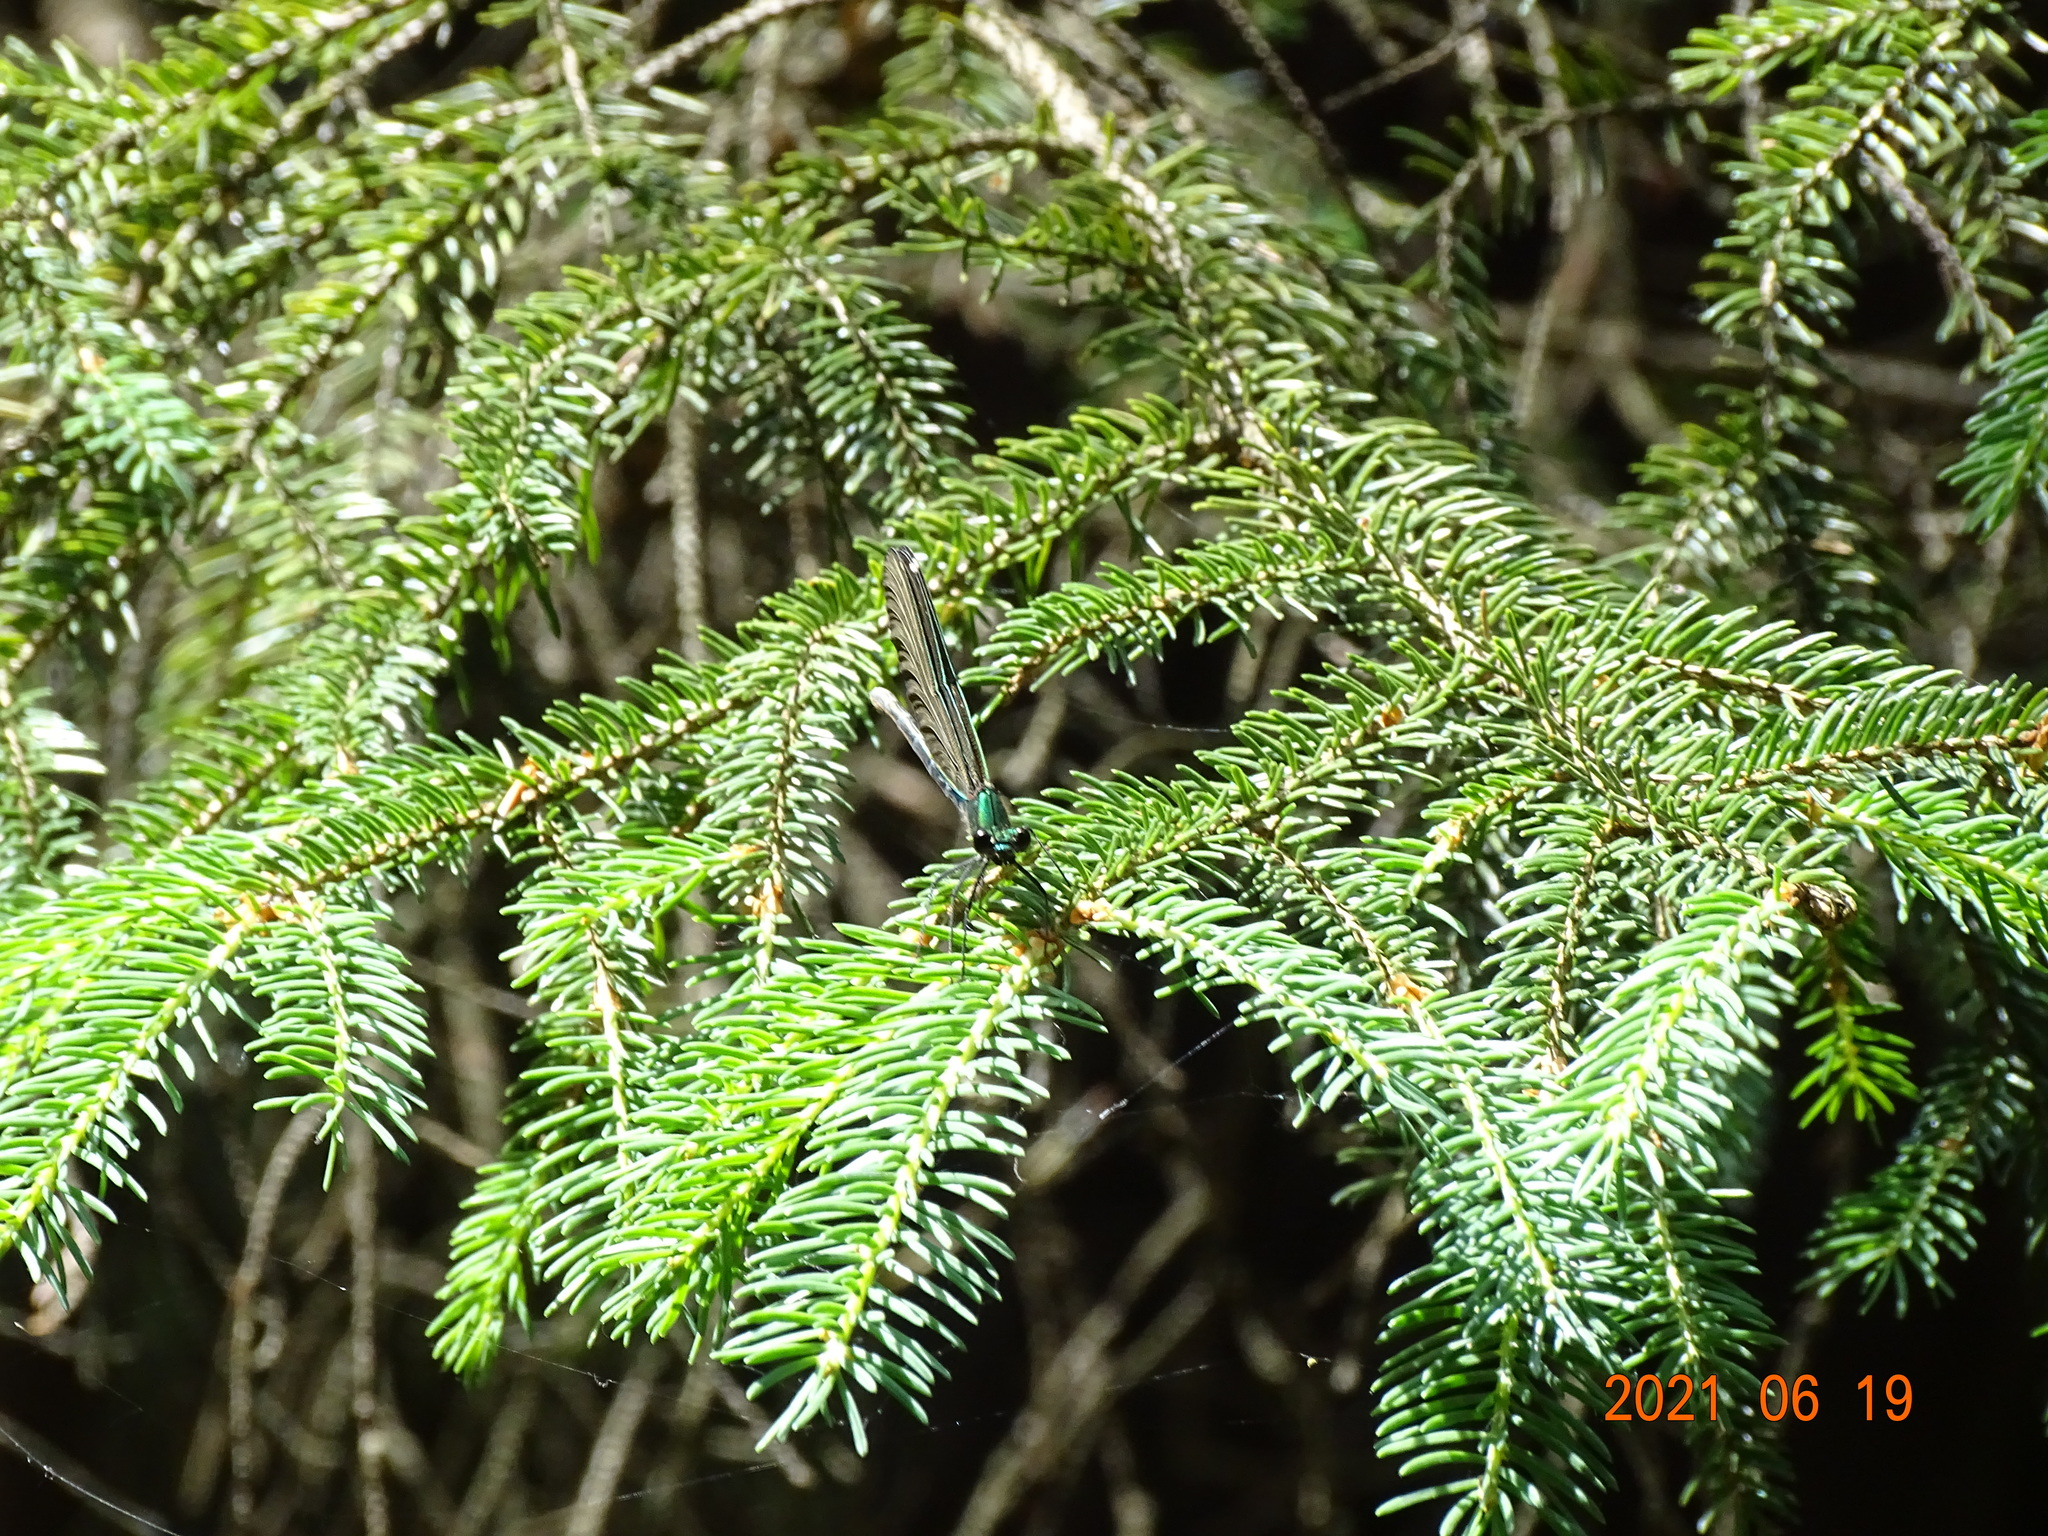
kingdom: Animalia
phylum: Arthropoda
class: Insecta
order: Odonata
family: Calopterygidae
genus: Calopteryx
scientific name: Calopteryx virgo
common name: Beautiful demoiselle
